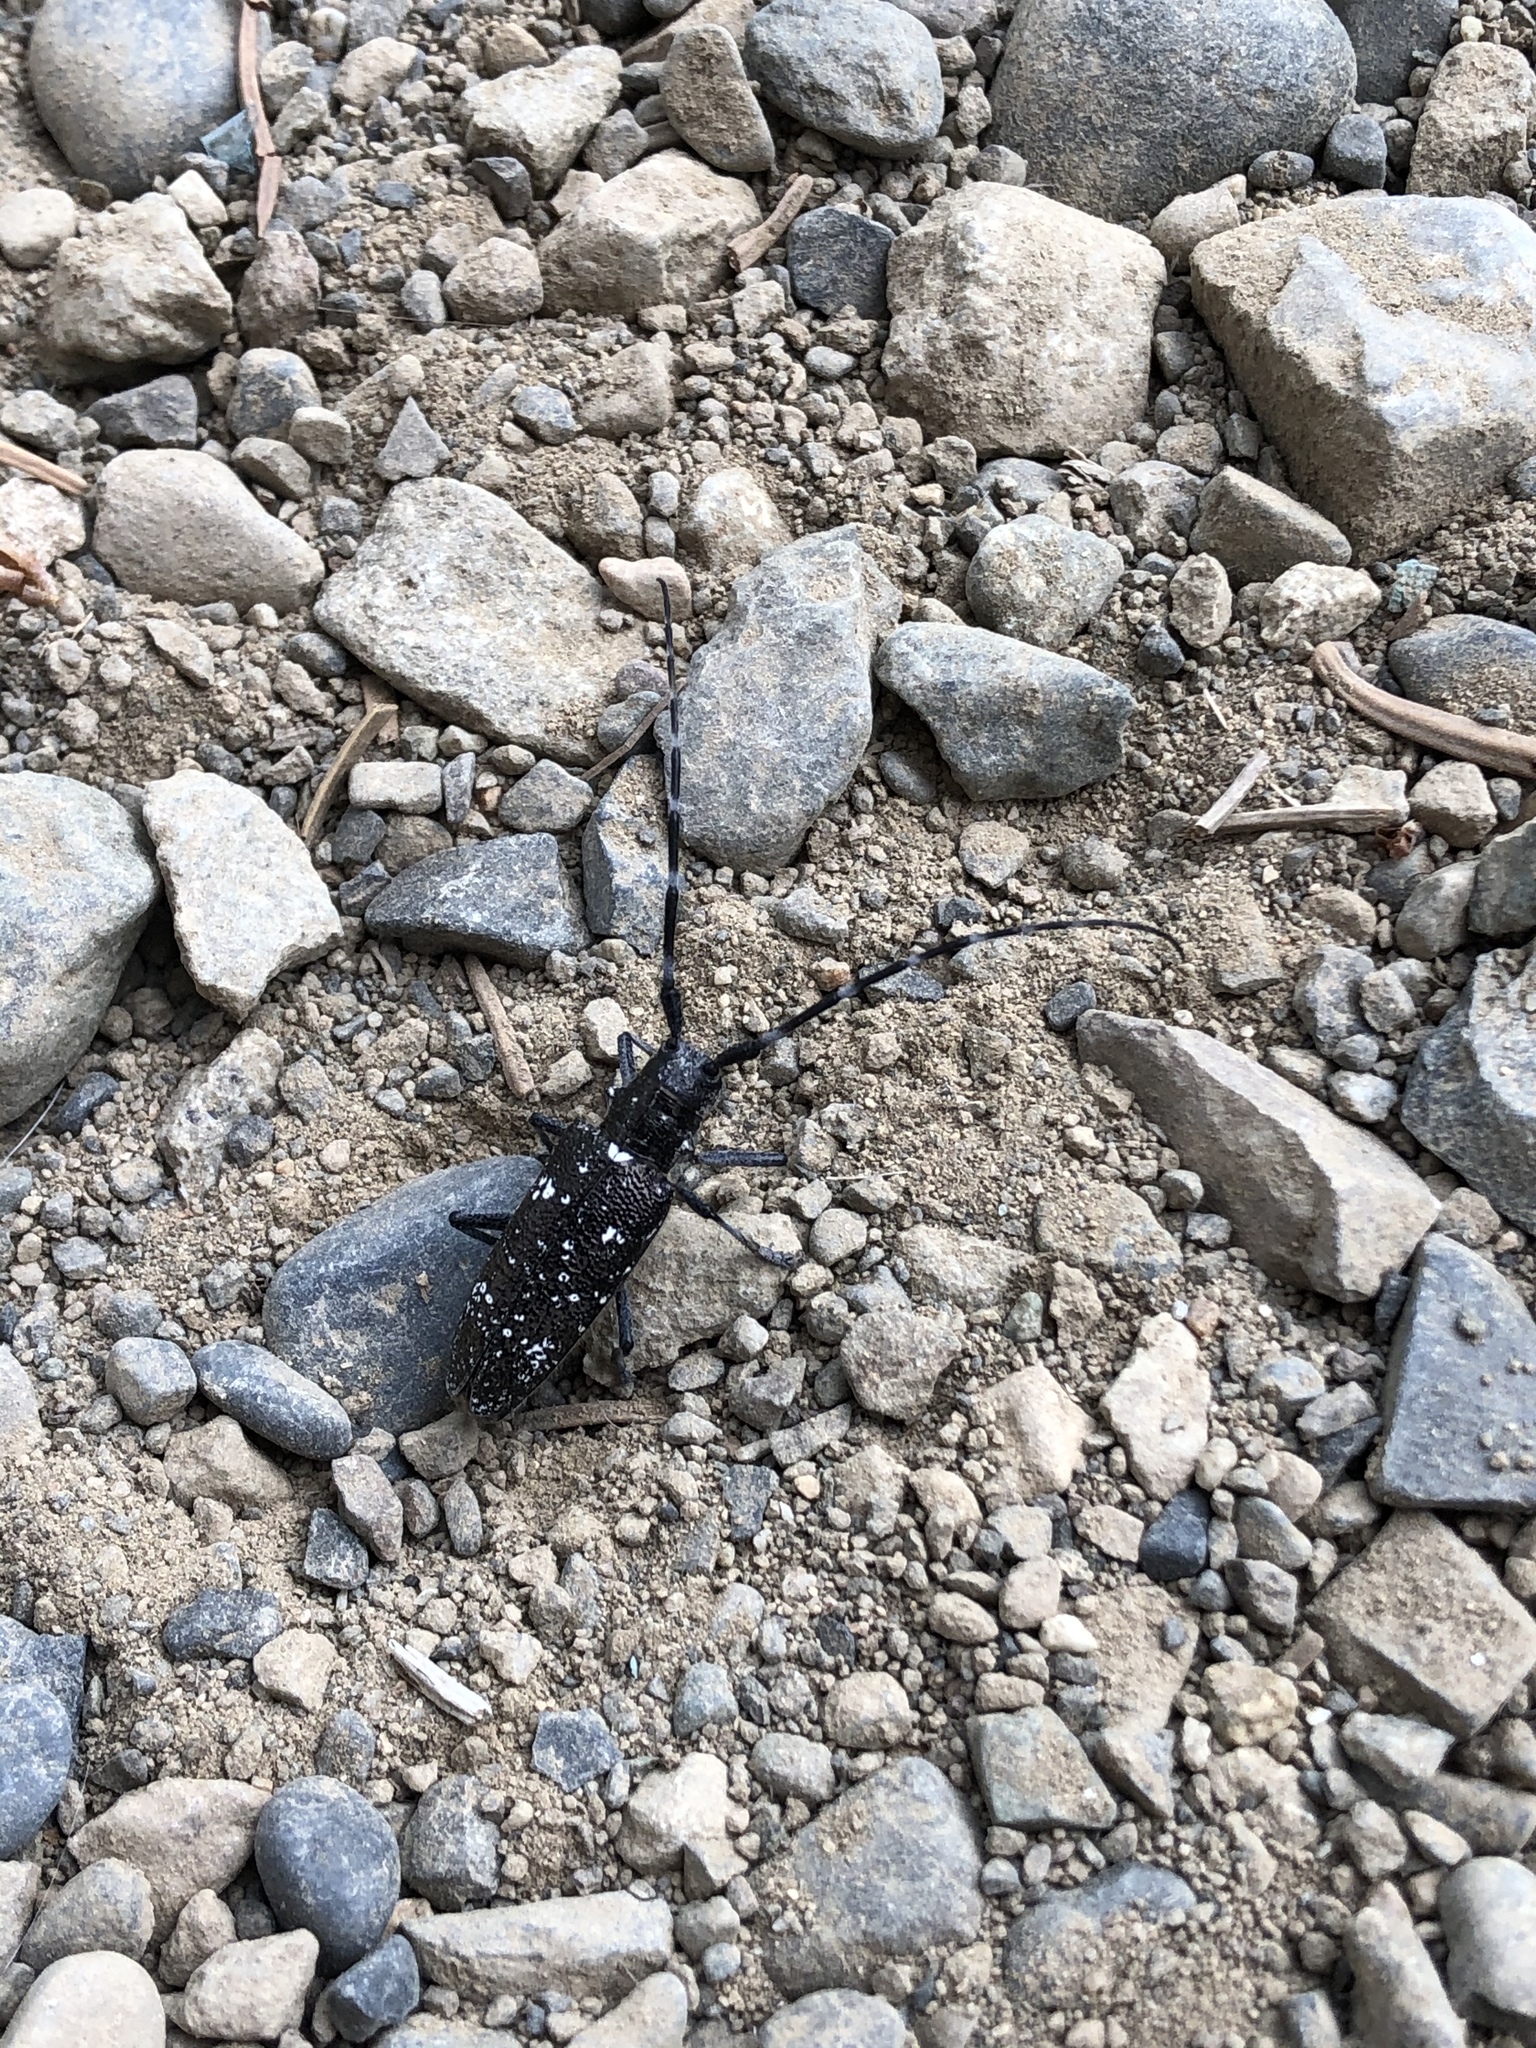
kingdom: Animalia
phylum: Arthropoda
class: Insecta
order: Coleoptera
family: Cerambycidae
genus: Monochamus
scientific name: Monochamus scutellatus
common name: White-spotted sawyer beetle
